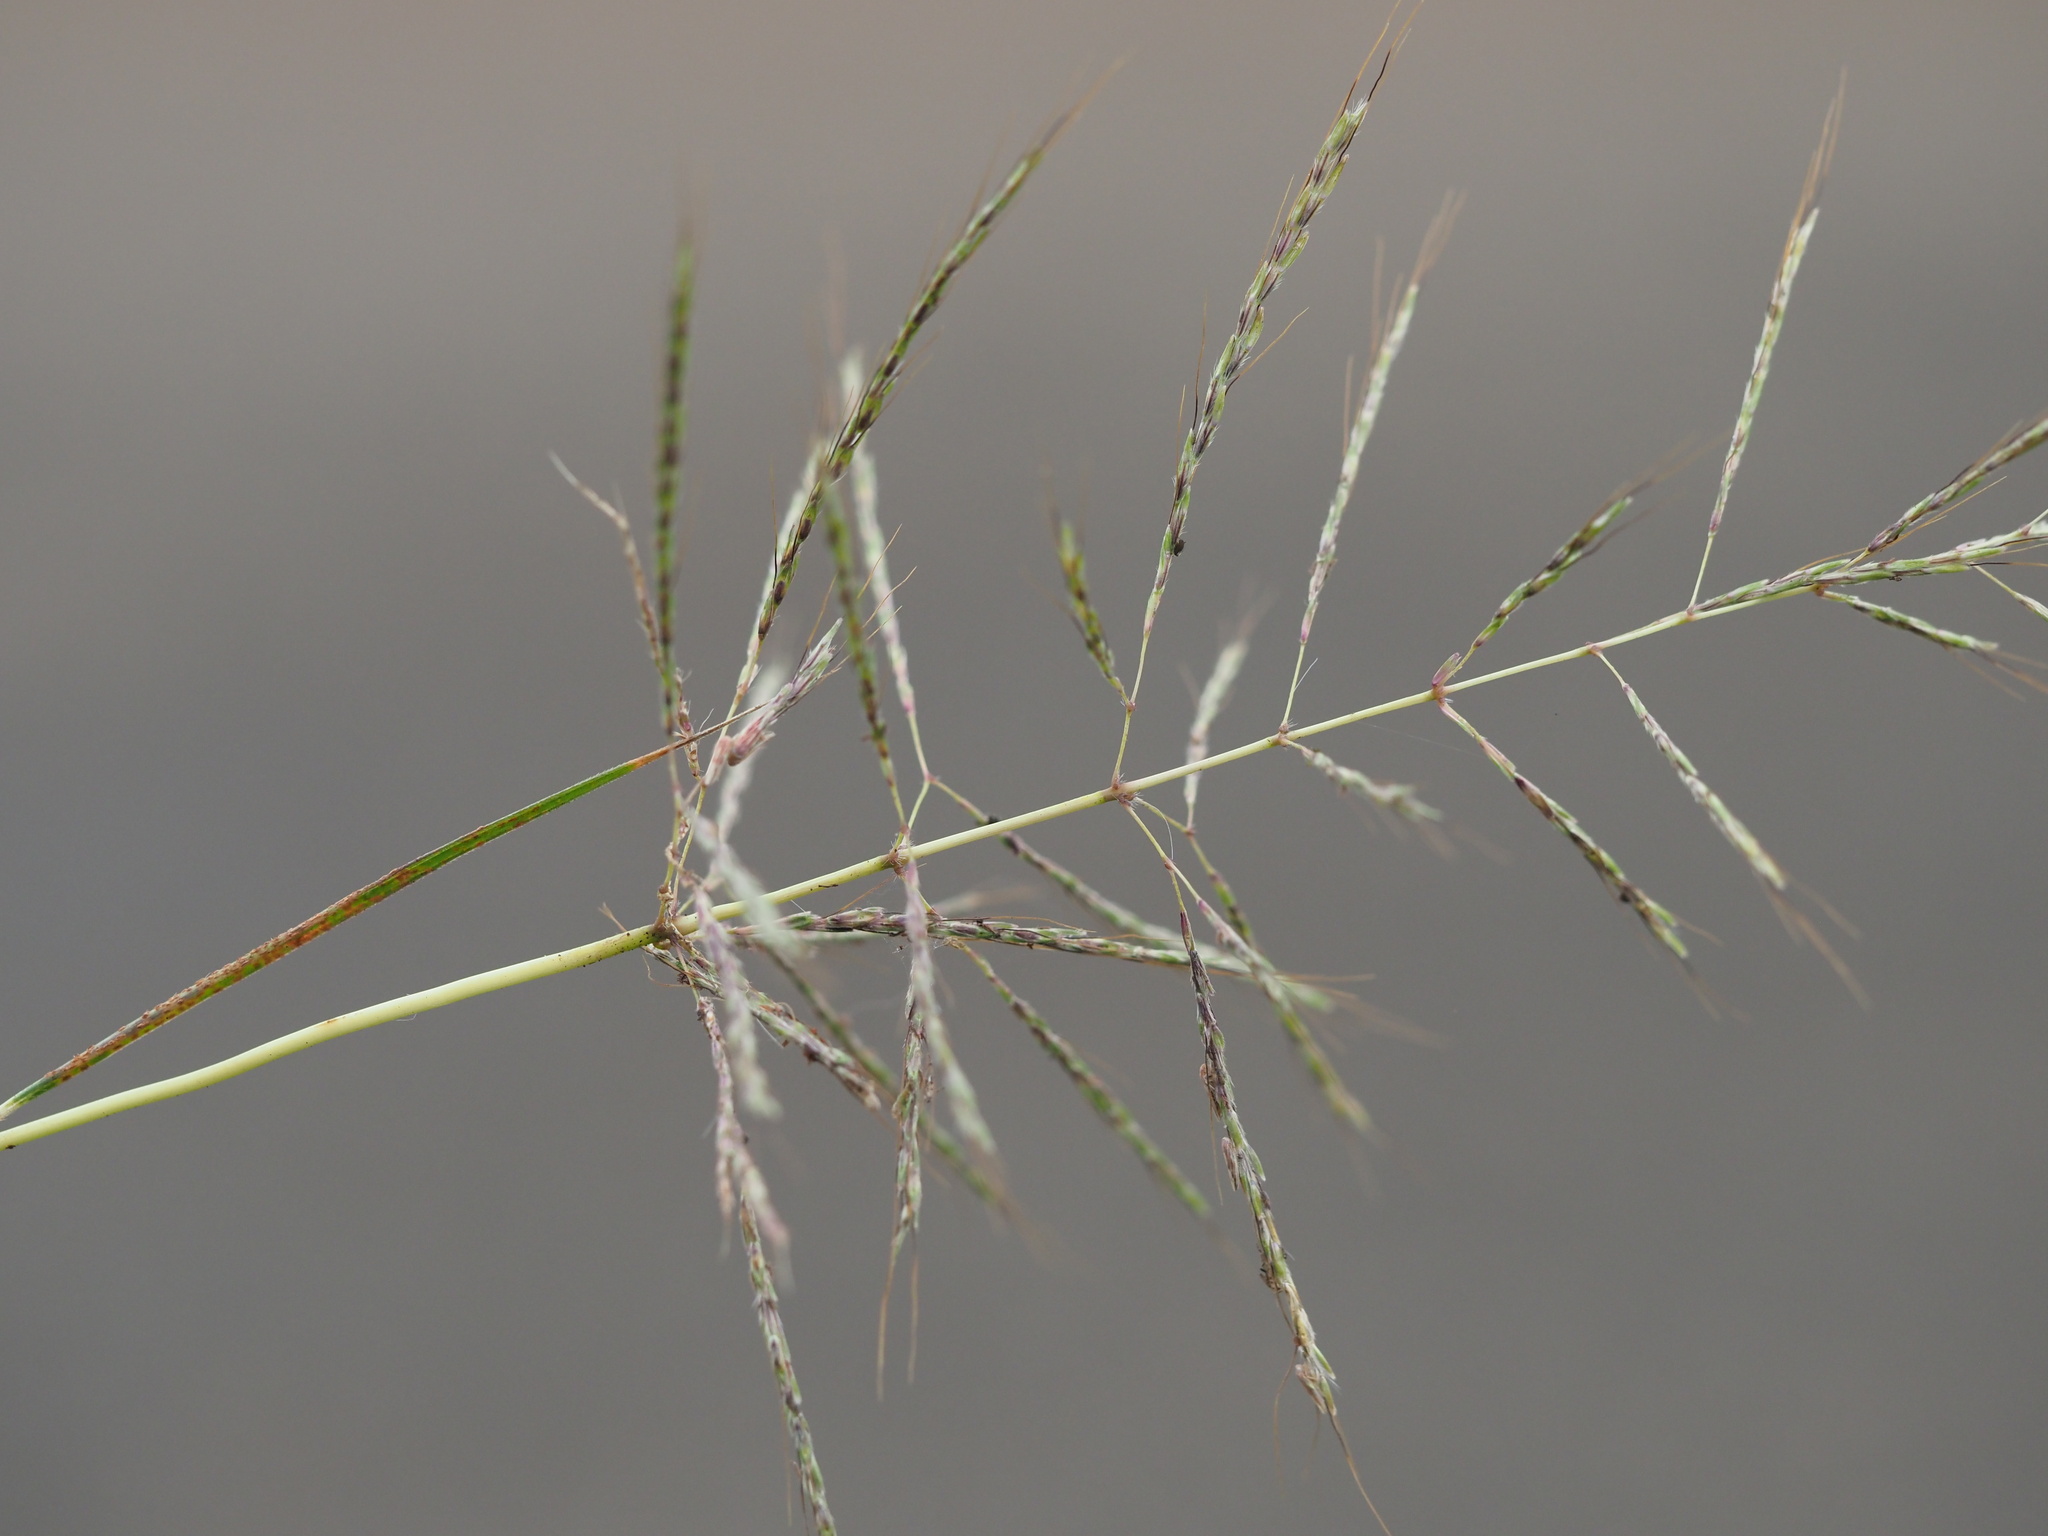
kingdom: Plantae
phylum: Tracheophyta
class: Liliopsida
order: Poales
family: Poaceae
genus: Bothriochloa
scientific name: Bothriochloa bladhii
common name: Caucasian bluestem
